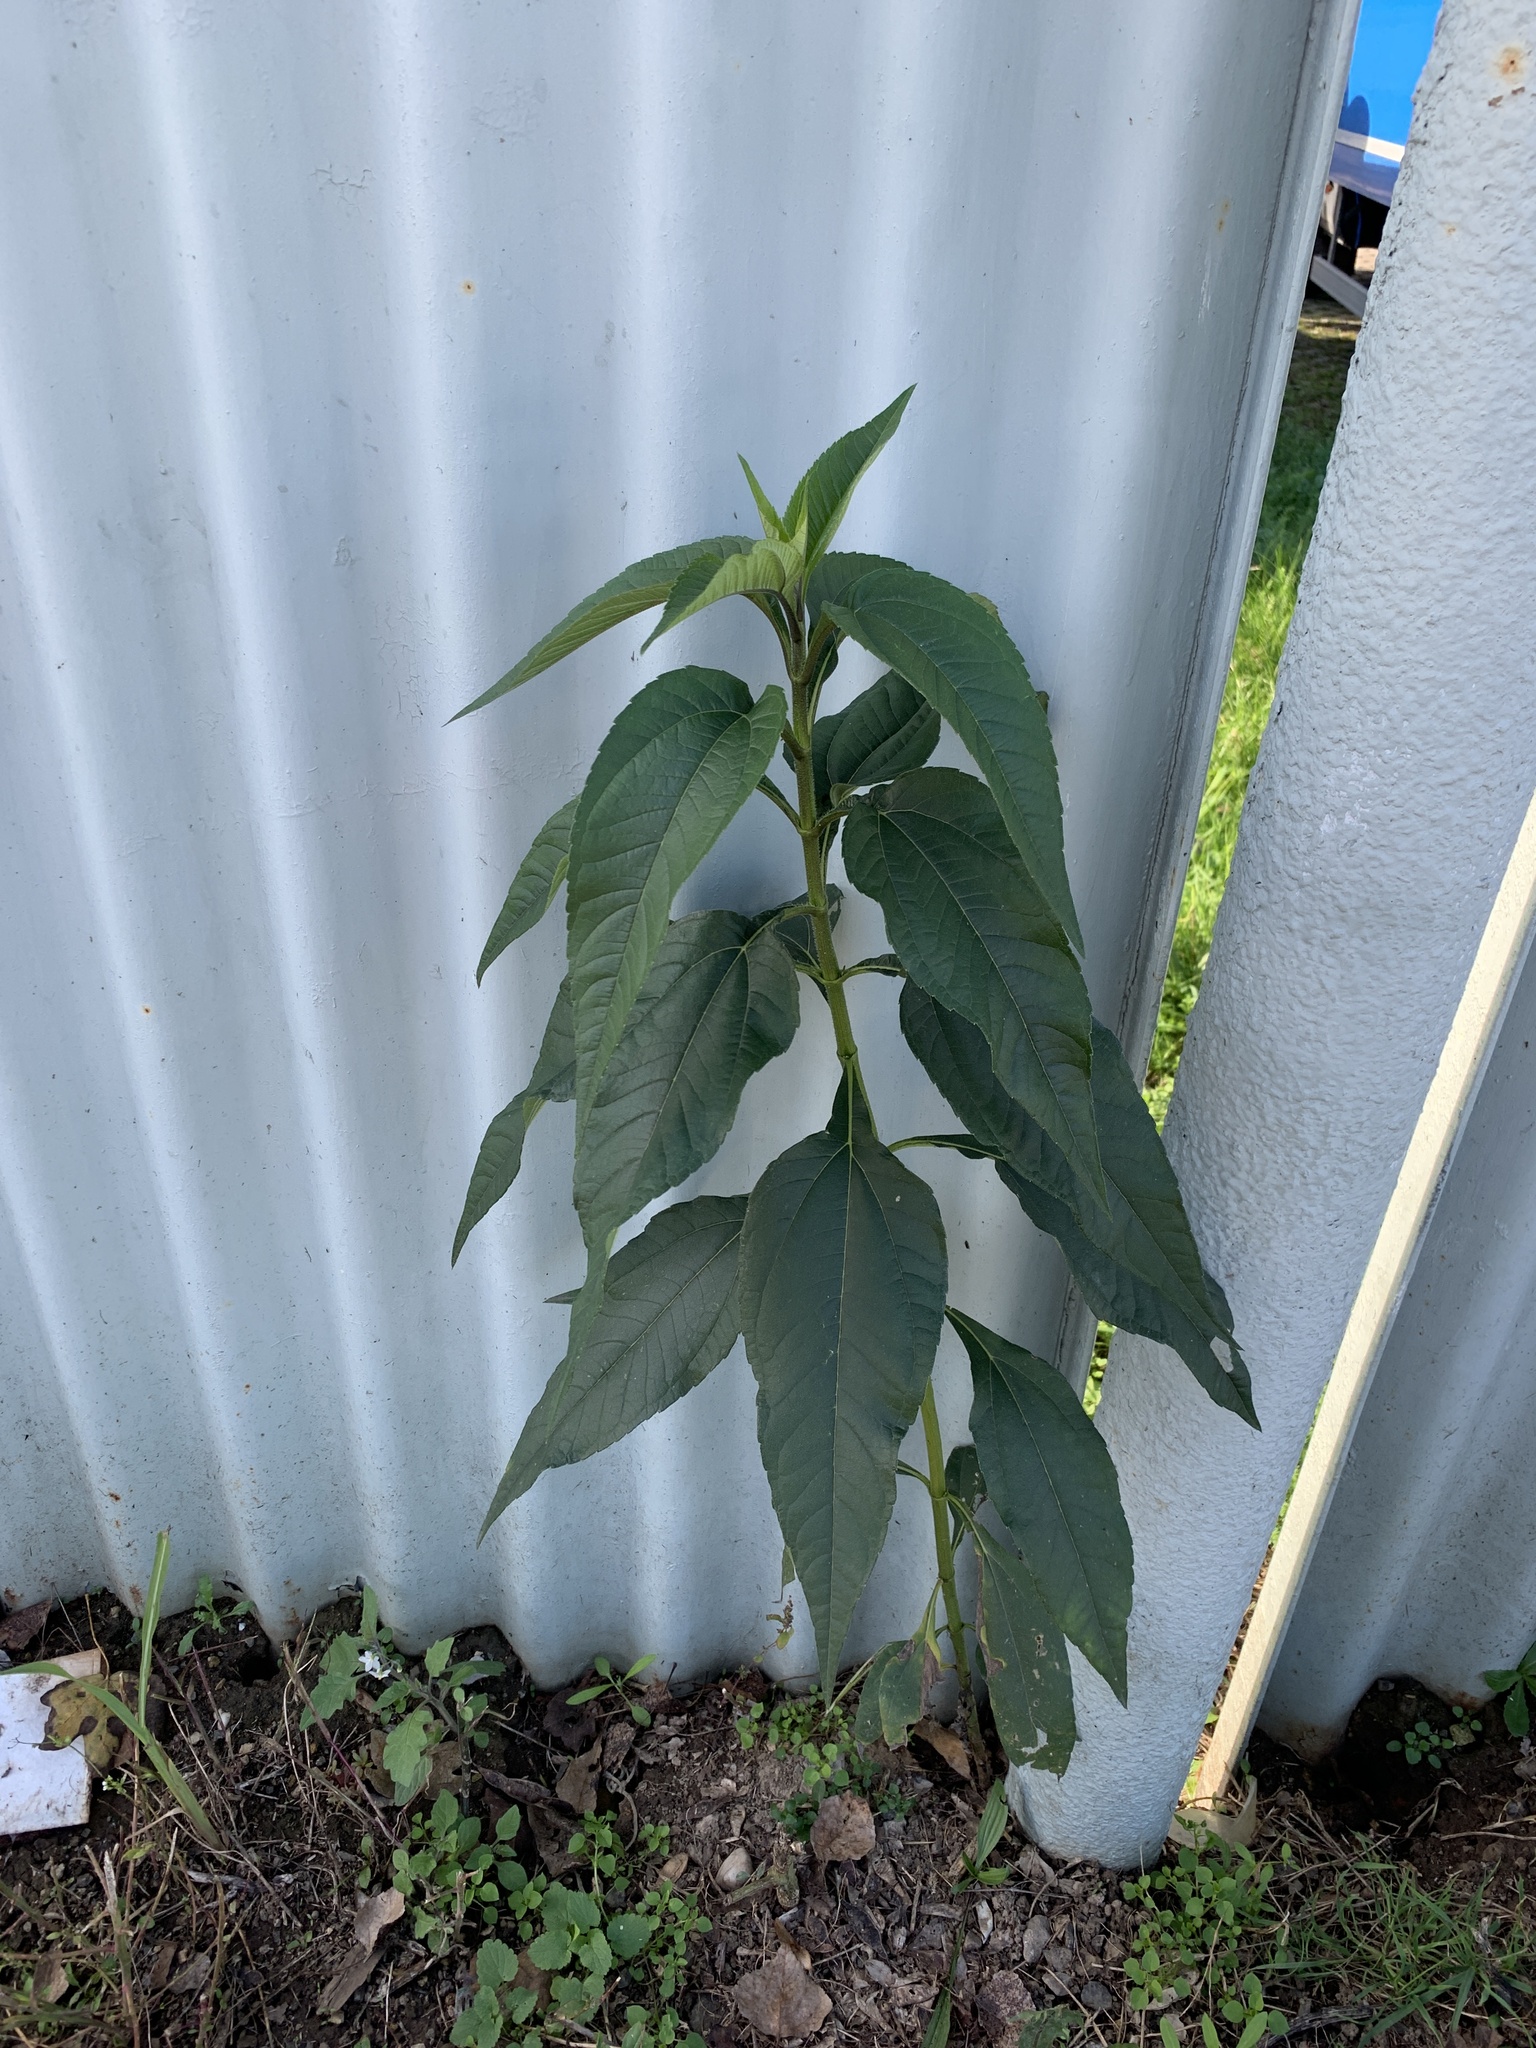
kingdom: Plantae
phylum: Tracheophyta
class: Magnoliopsida
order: Asterales
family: Asteraceae
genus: Helianthus
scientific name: Helianthus tuberosus
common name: Jerusalem artichoke
